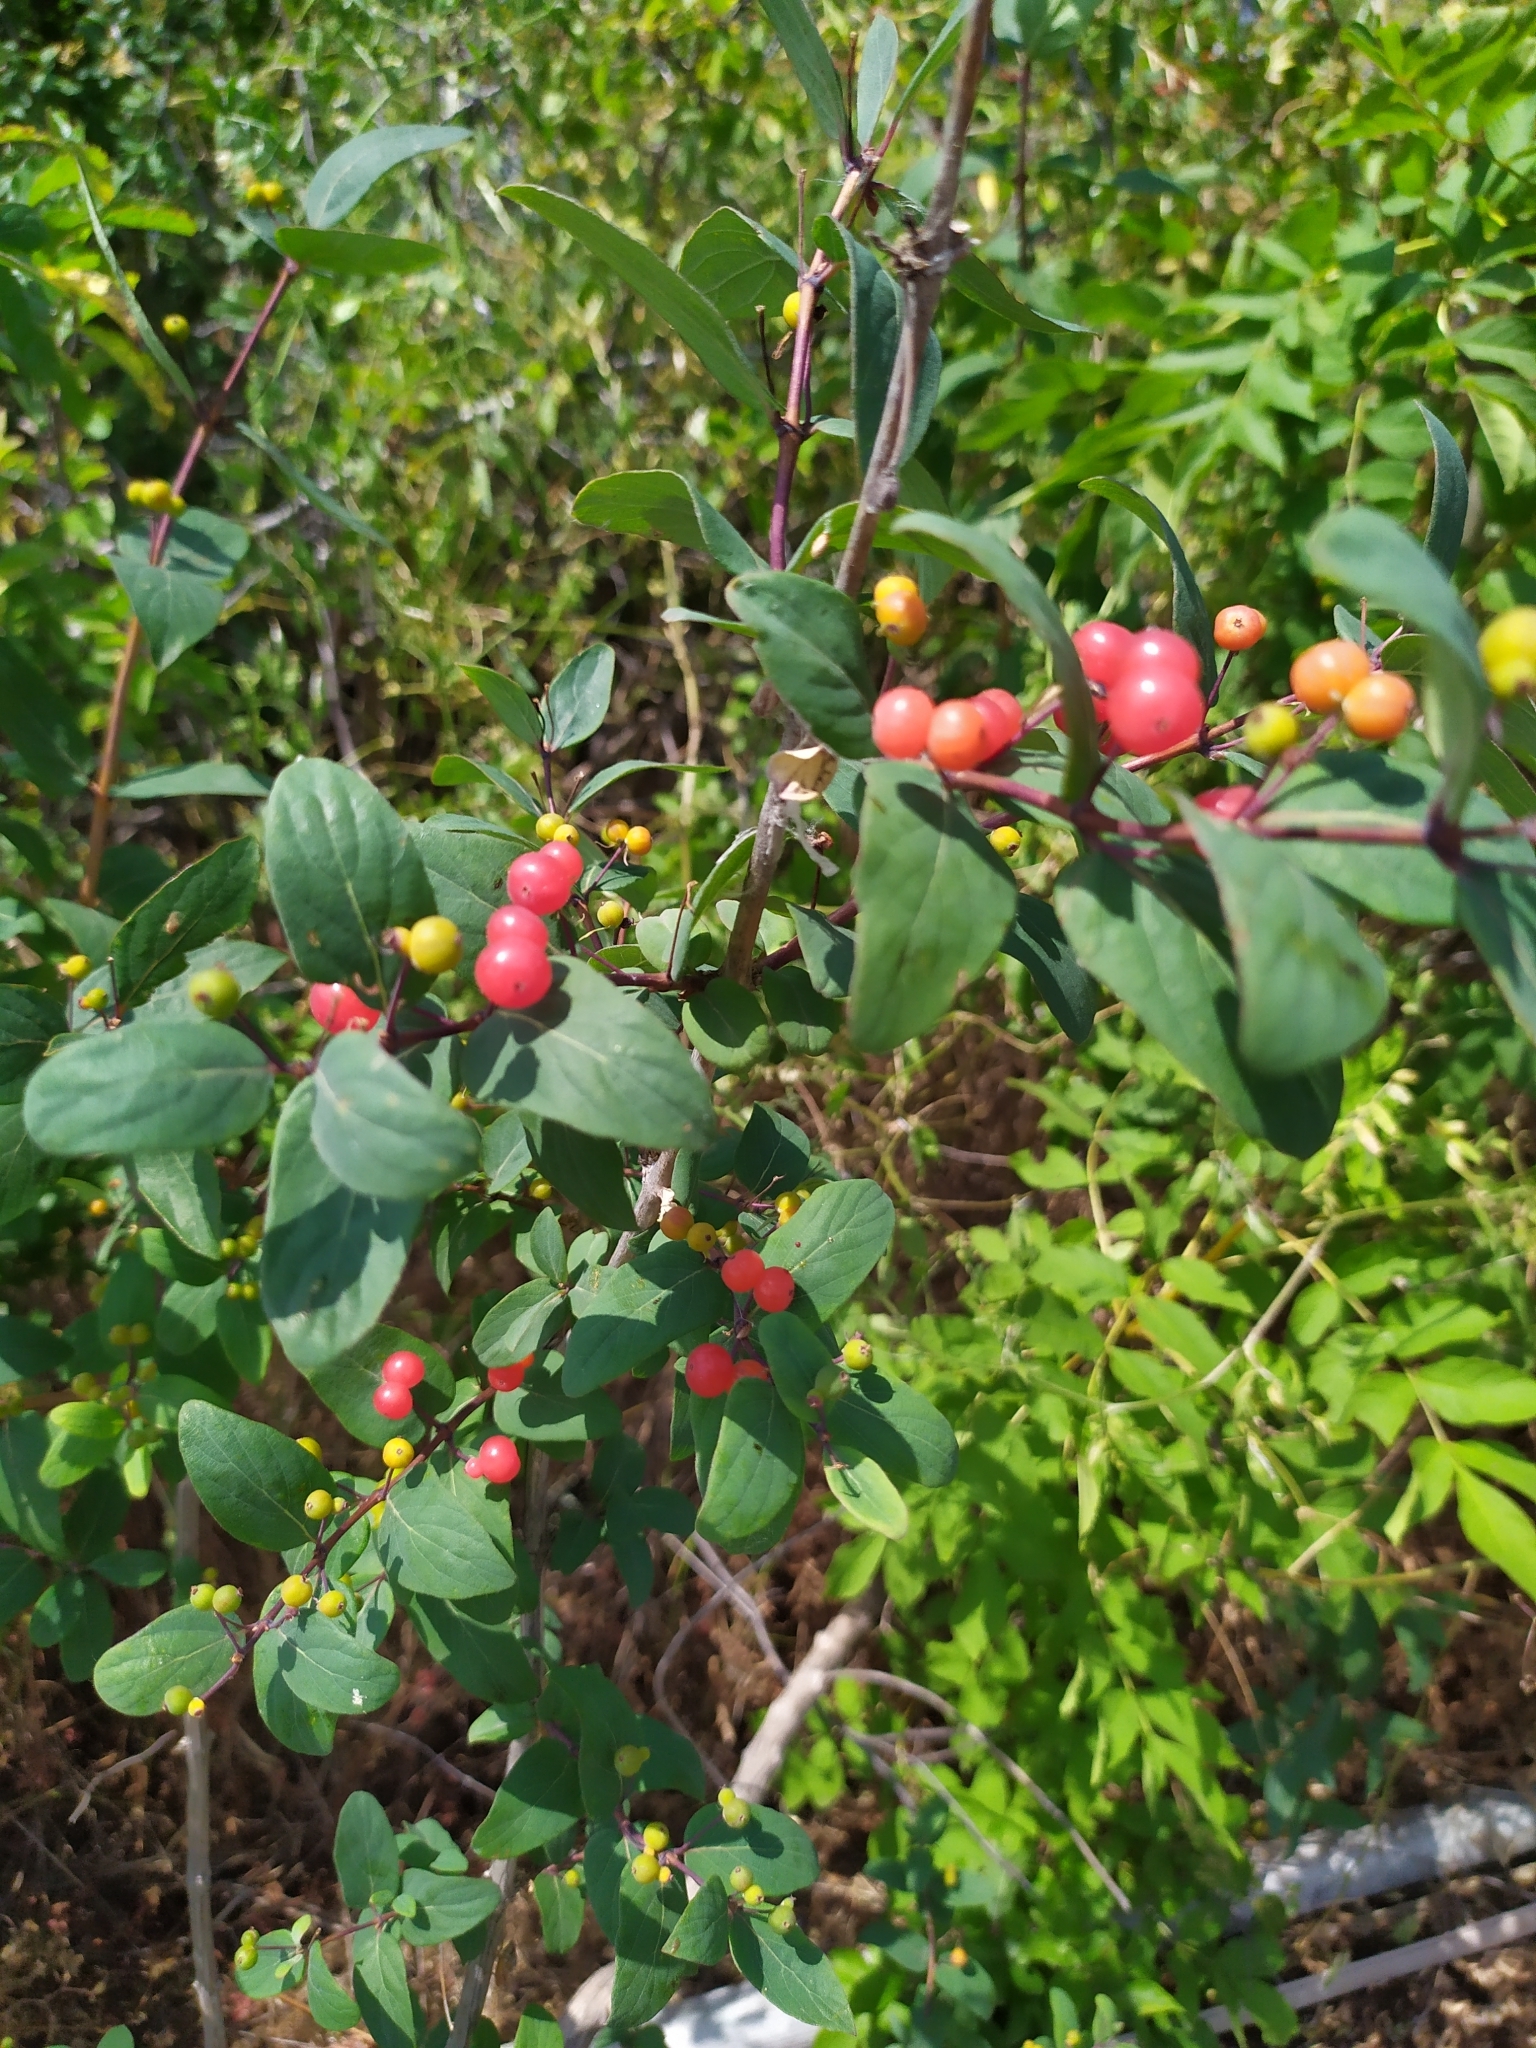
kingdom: Plantae
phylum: Tracheophyta
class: Magnoliopsida
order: Dipsacales
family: Caprifoliaceae
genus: Lonicera
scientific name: Lonicera tatarica
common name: Tatarian honeysuckle
